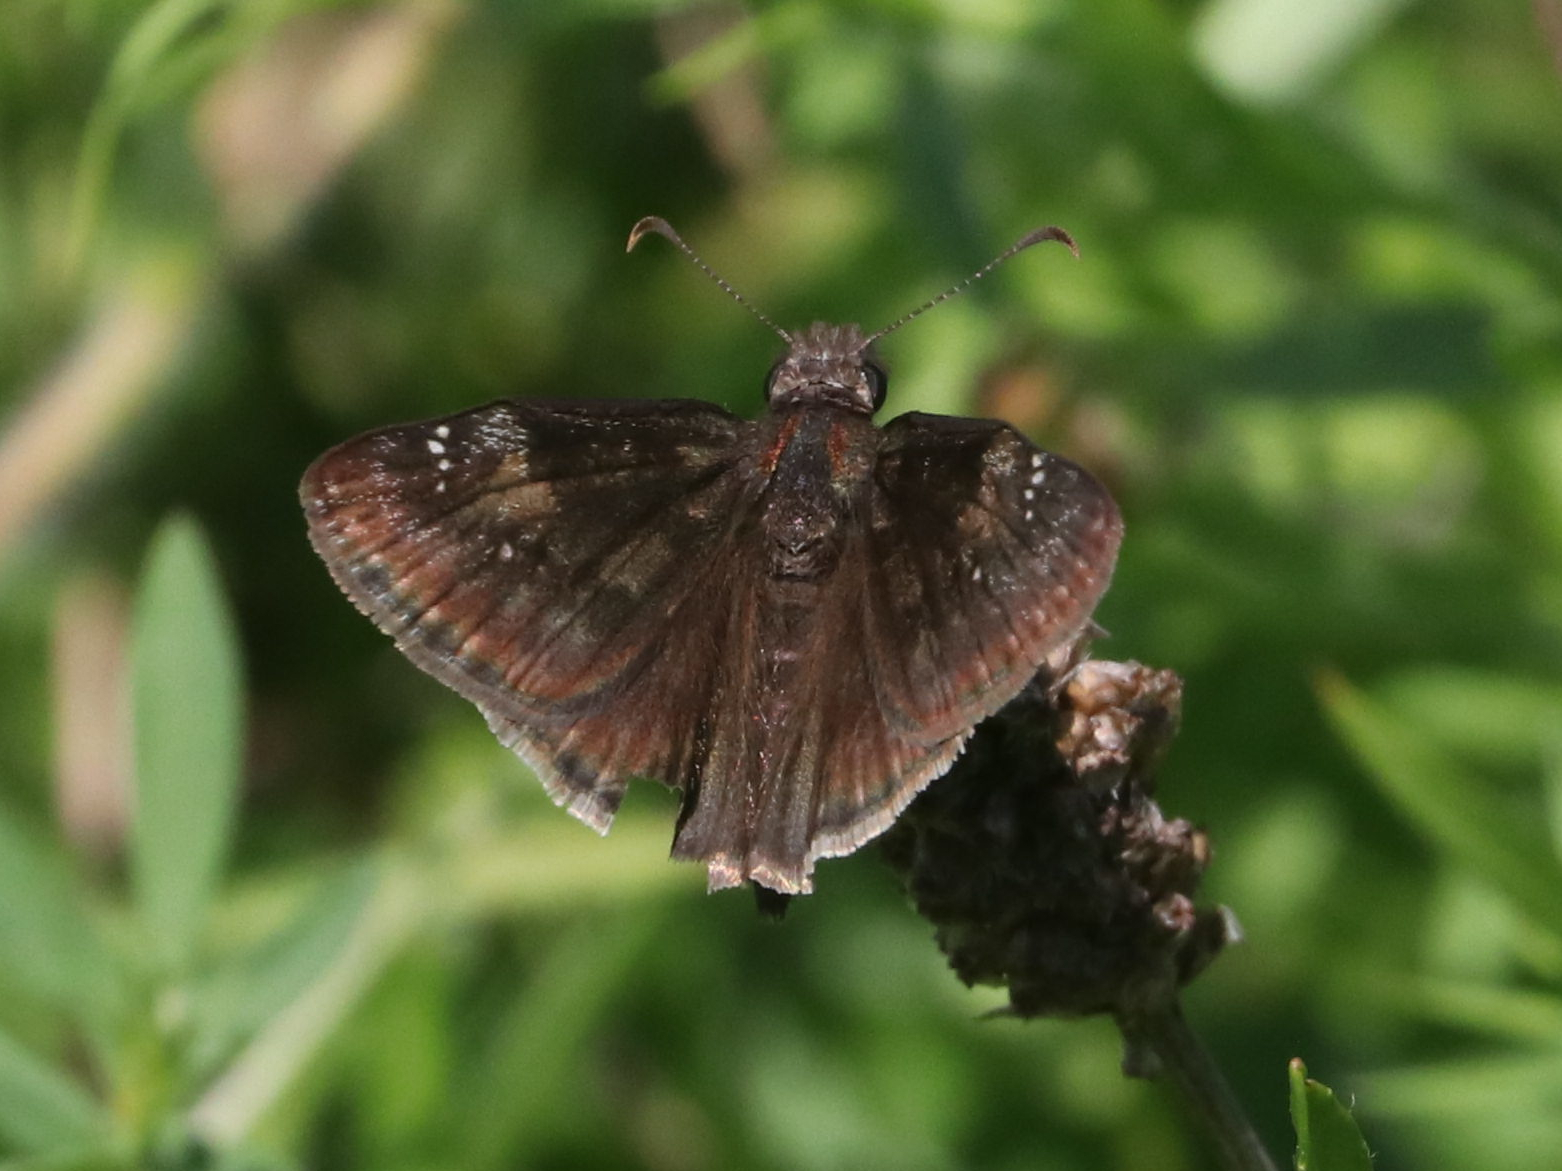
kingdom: Animalia
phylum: Arthropoda
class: Insecta
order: Lepidoptera
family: Hesperiidae
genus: Erynnis
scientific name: Erynnis baptisiae
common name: Wild indigo duskywing
